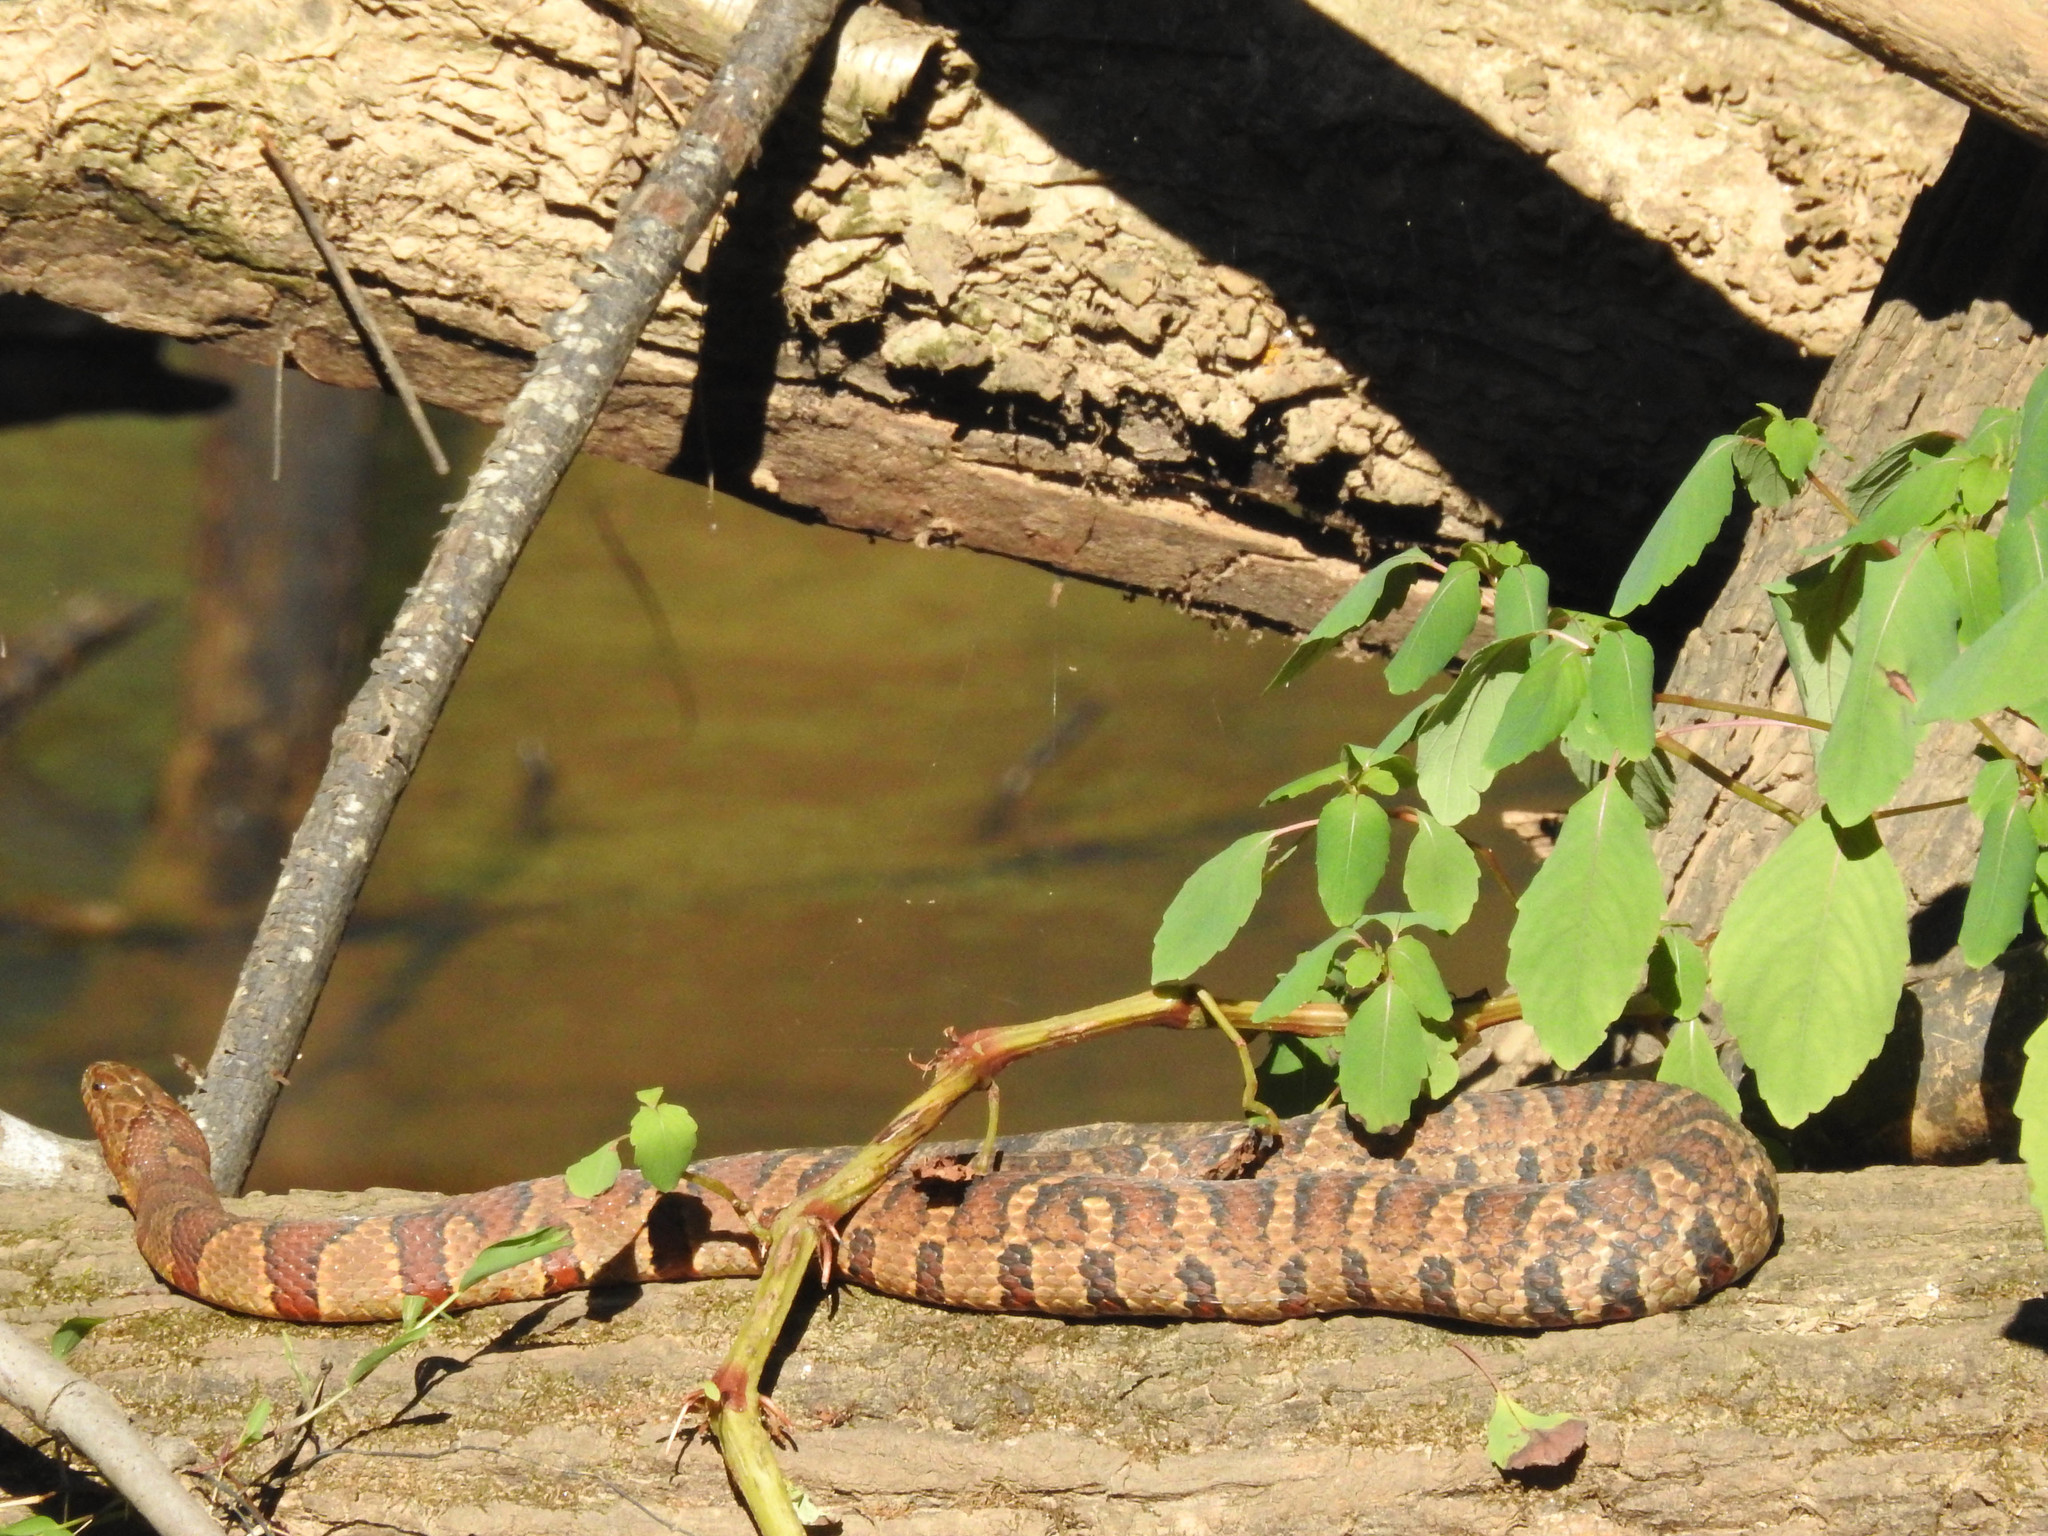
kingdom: Animalia
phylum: Chordata
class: Squamata
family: Colubridae
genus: Nerodia
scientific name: Nerodia sipedon
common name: Northern water snake
